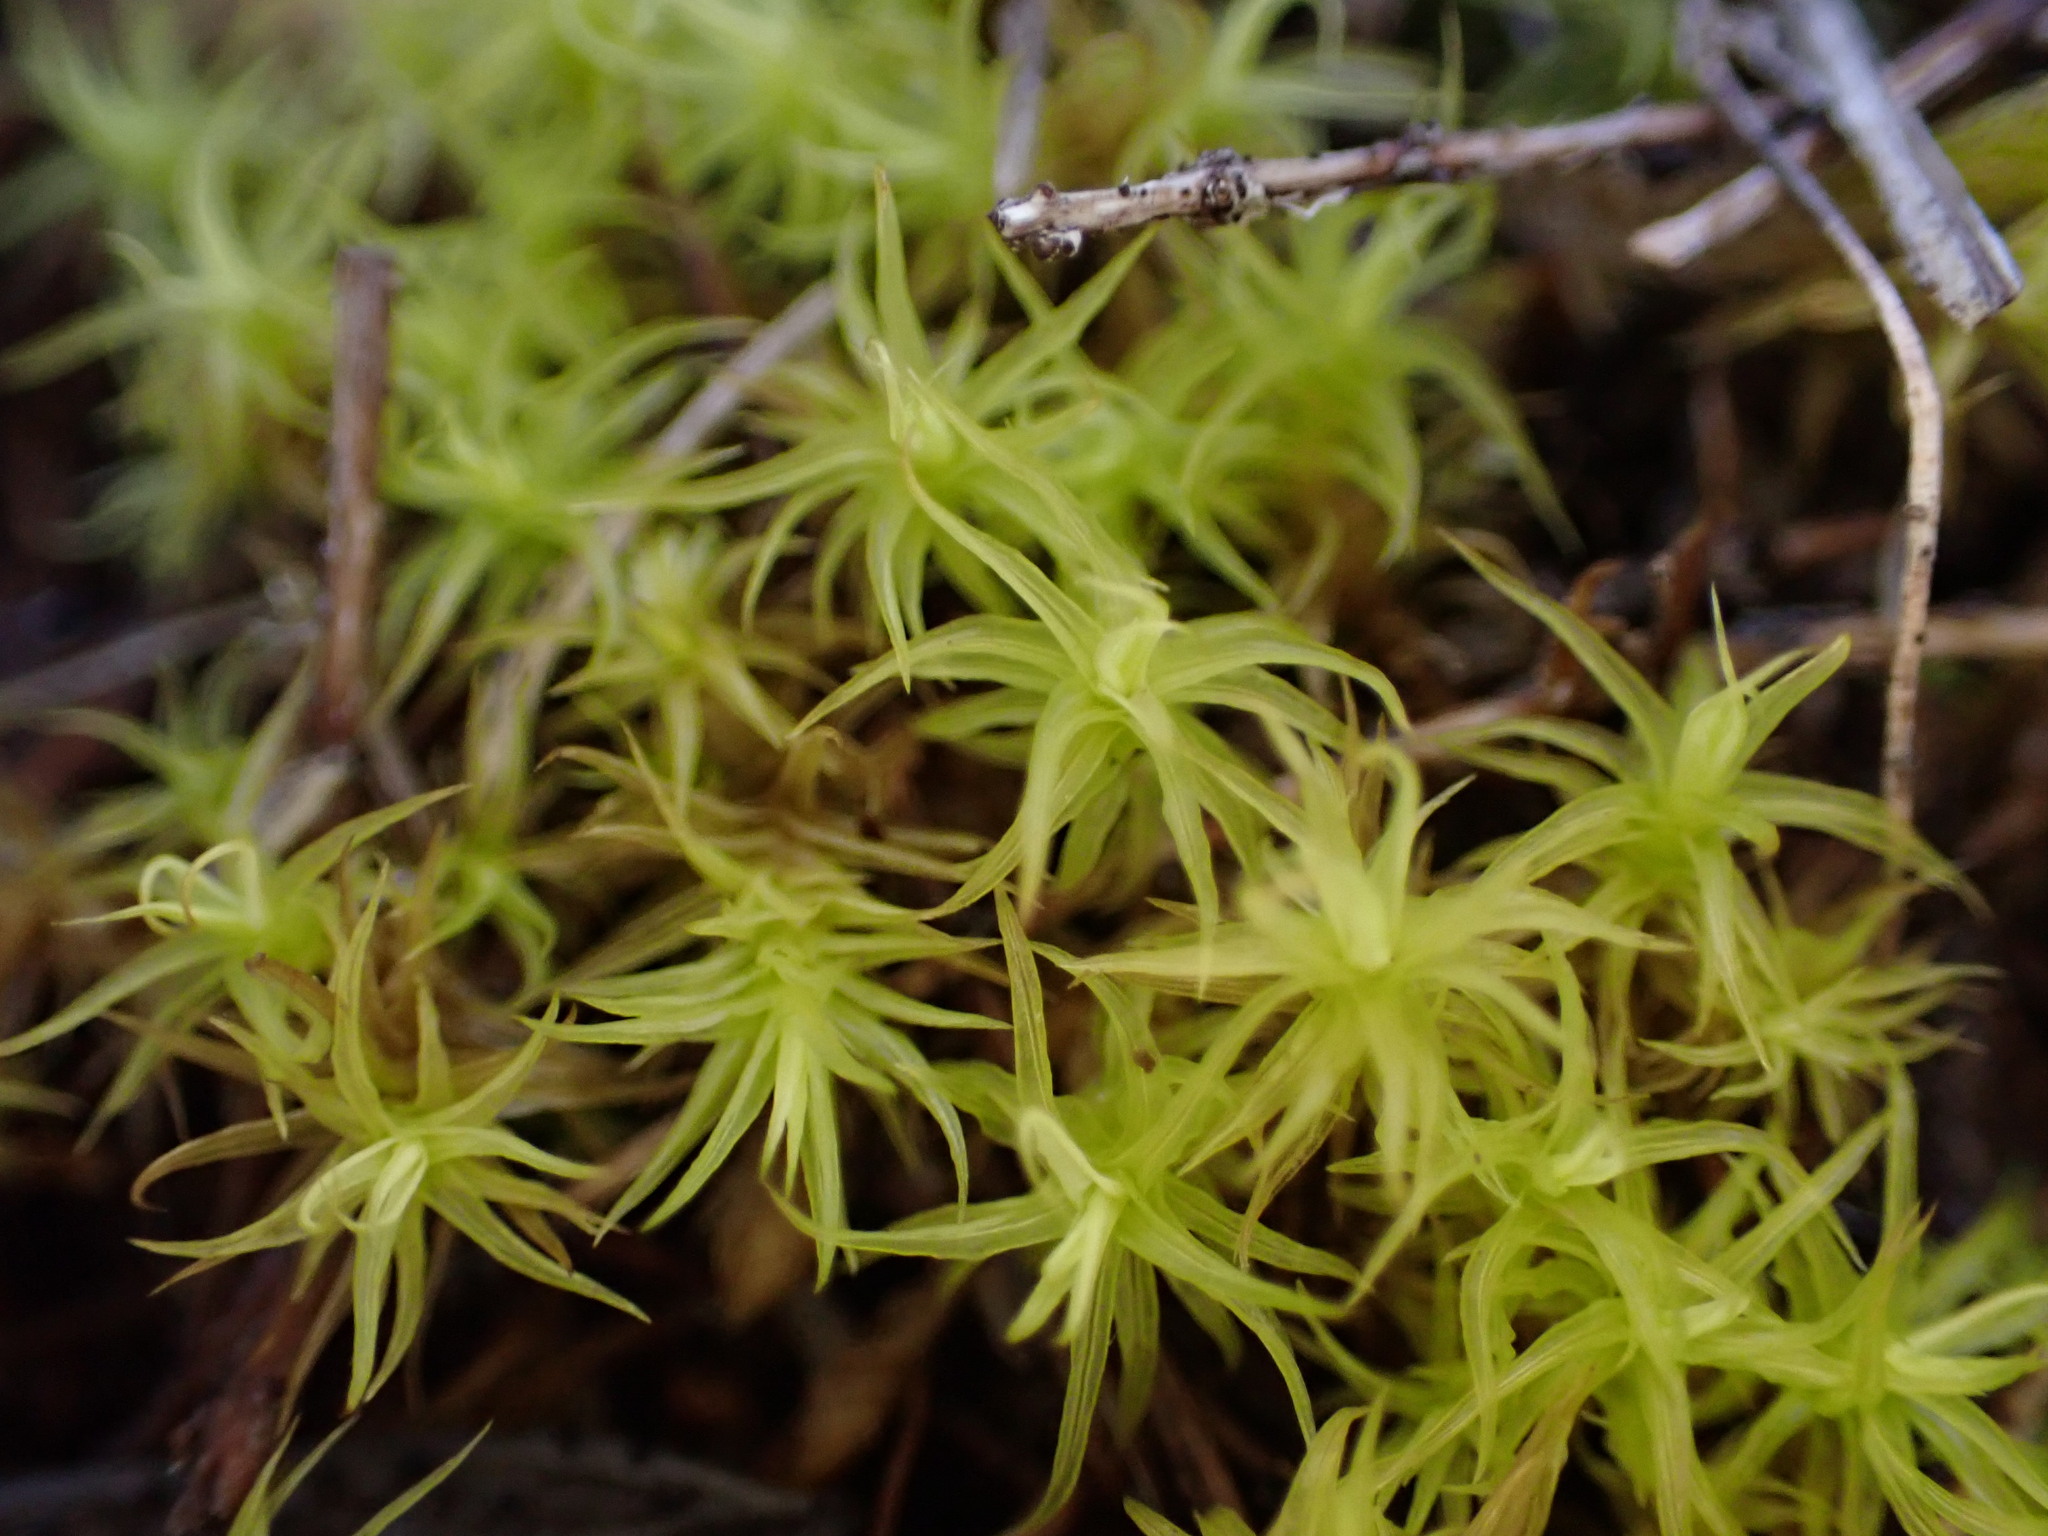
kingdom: Plantae
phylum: Bryophyta
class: Bryopsida
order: Pottiales
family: Pottiaceae
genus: Pleurochaete
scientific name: Pleurochaete squarrosa
